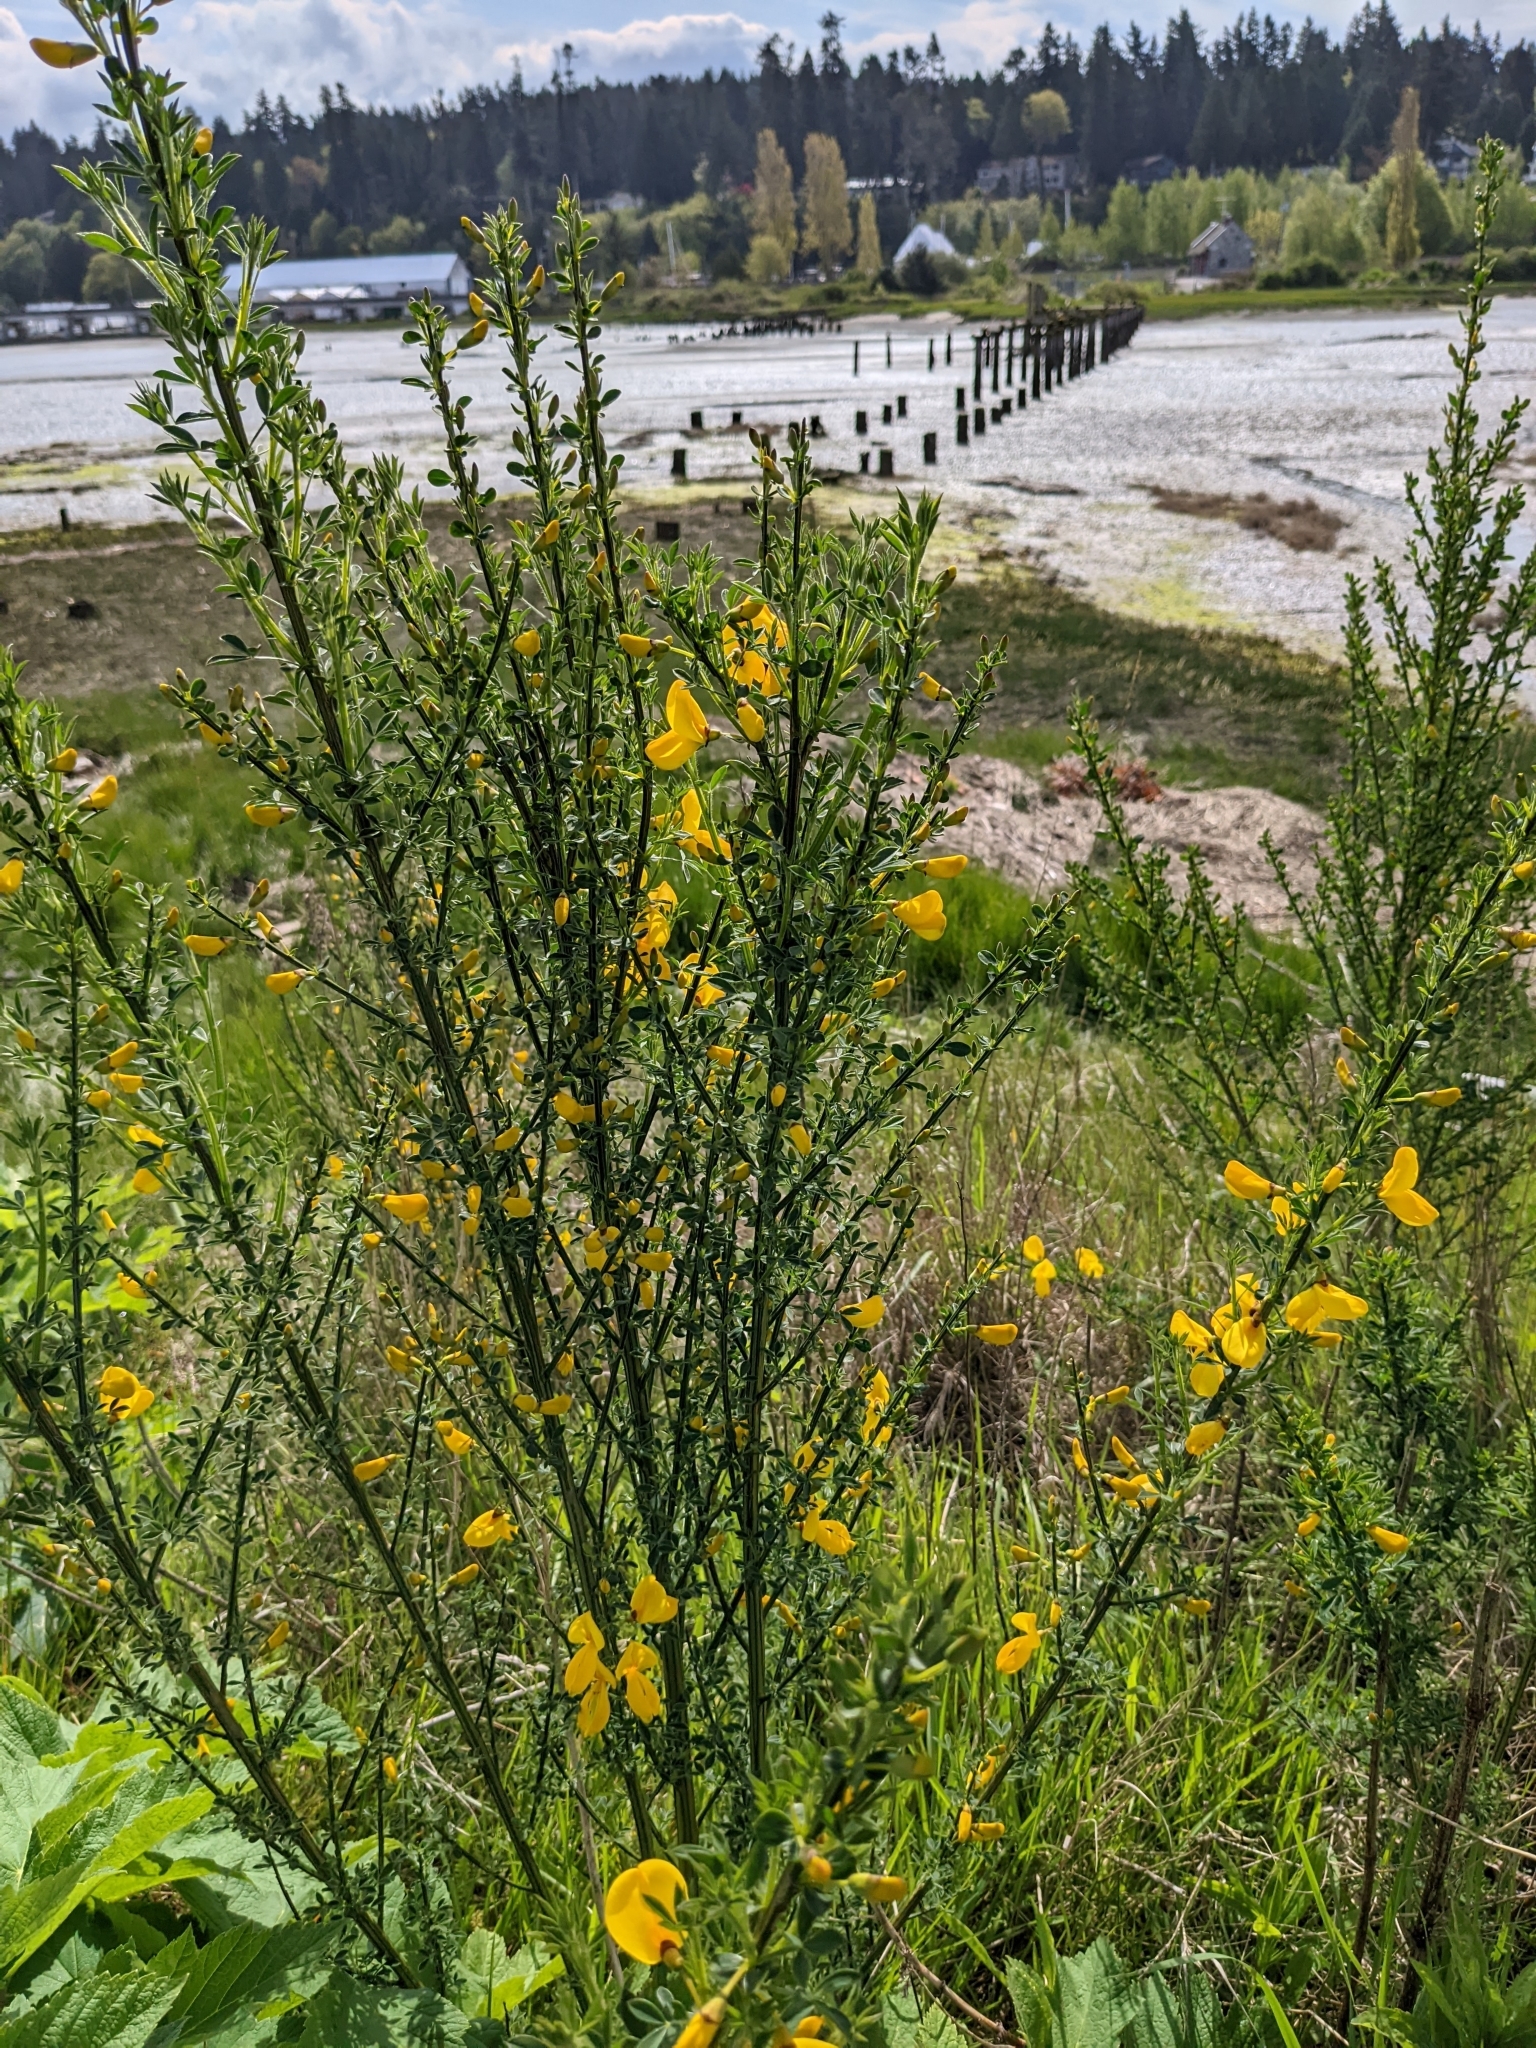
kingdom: Plantae
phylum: Tracheophyta
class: Magnoliopsida
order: Fabales
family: Fabaceae
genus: Cytisus
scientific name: Cytisus scoparius
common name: Scotch broom
